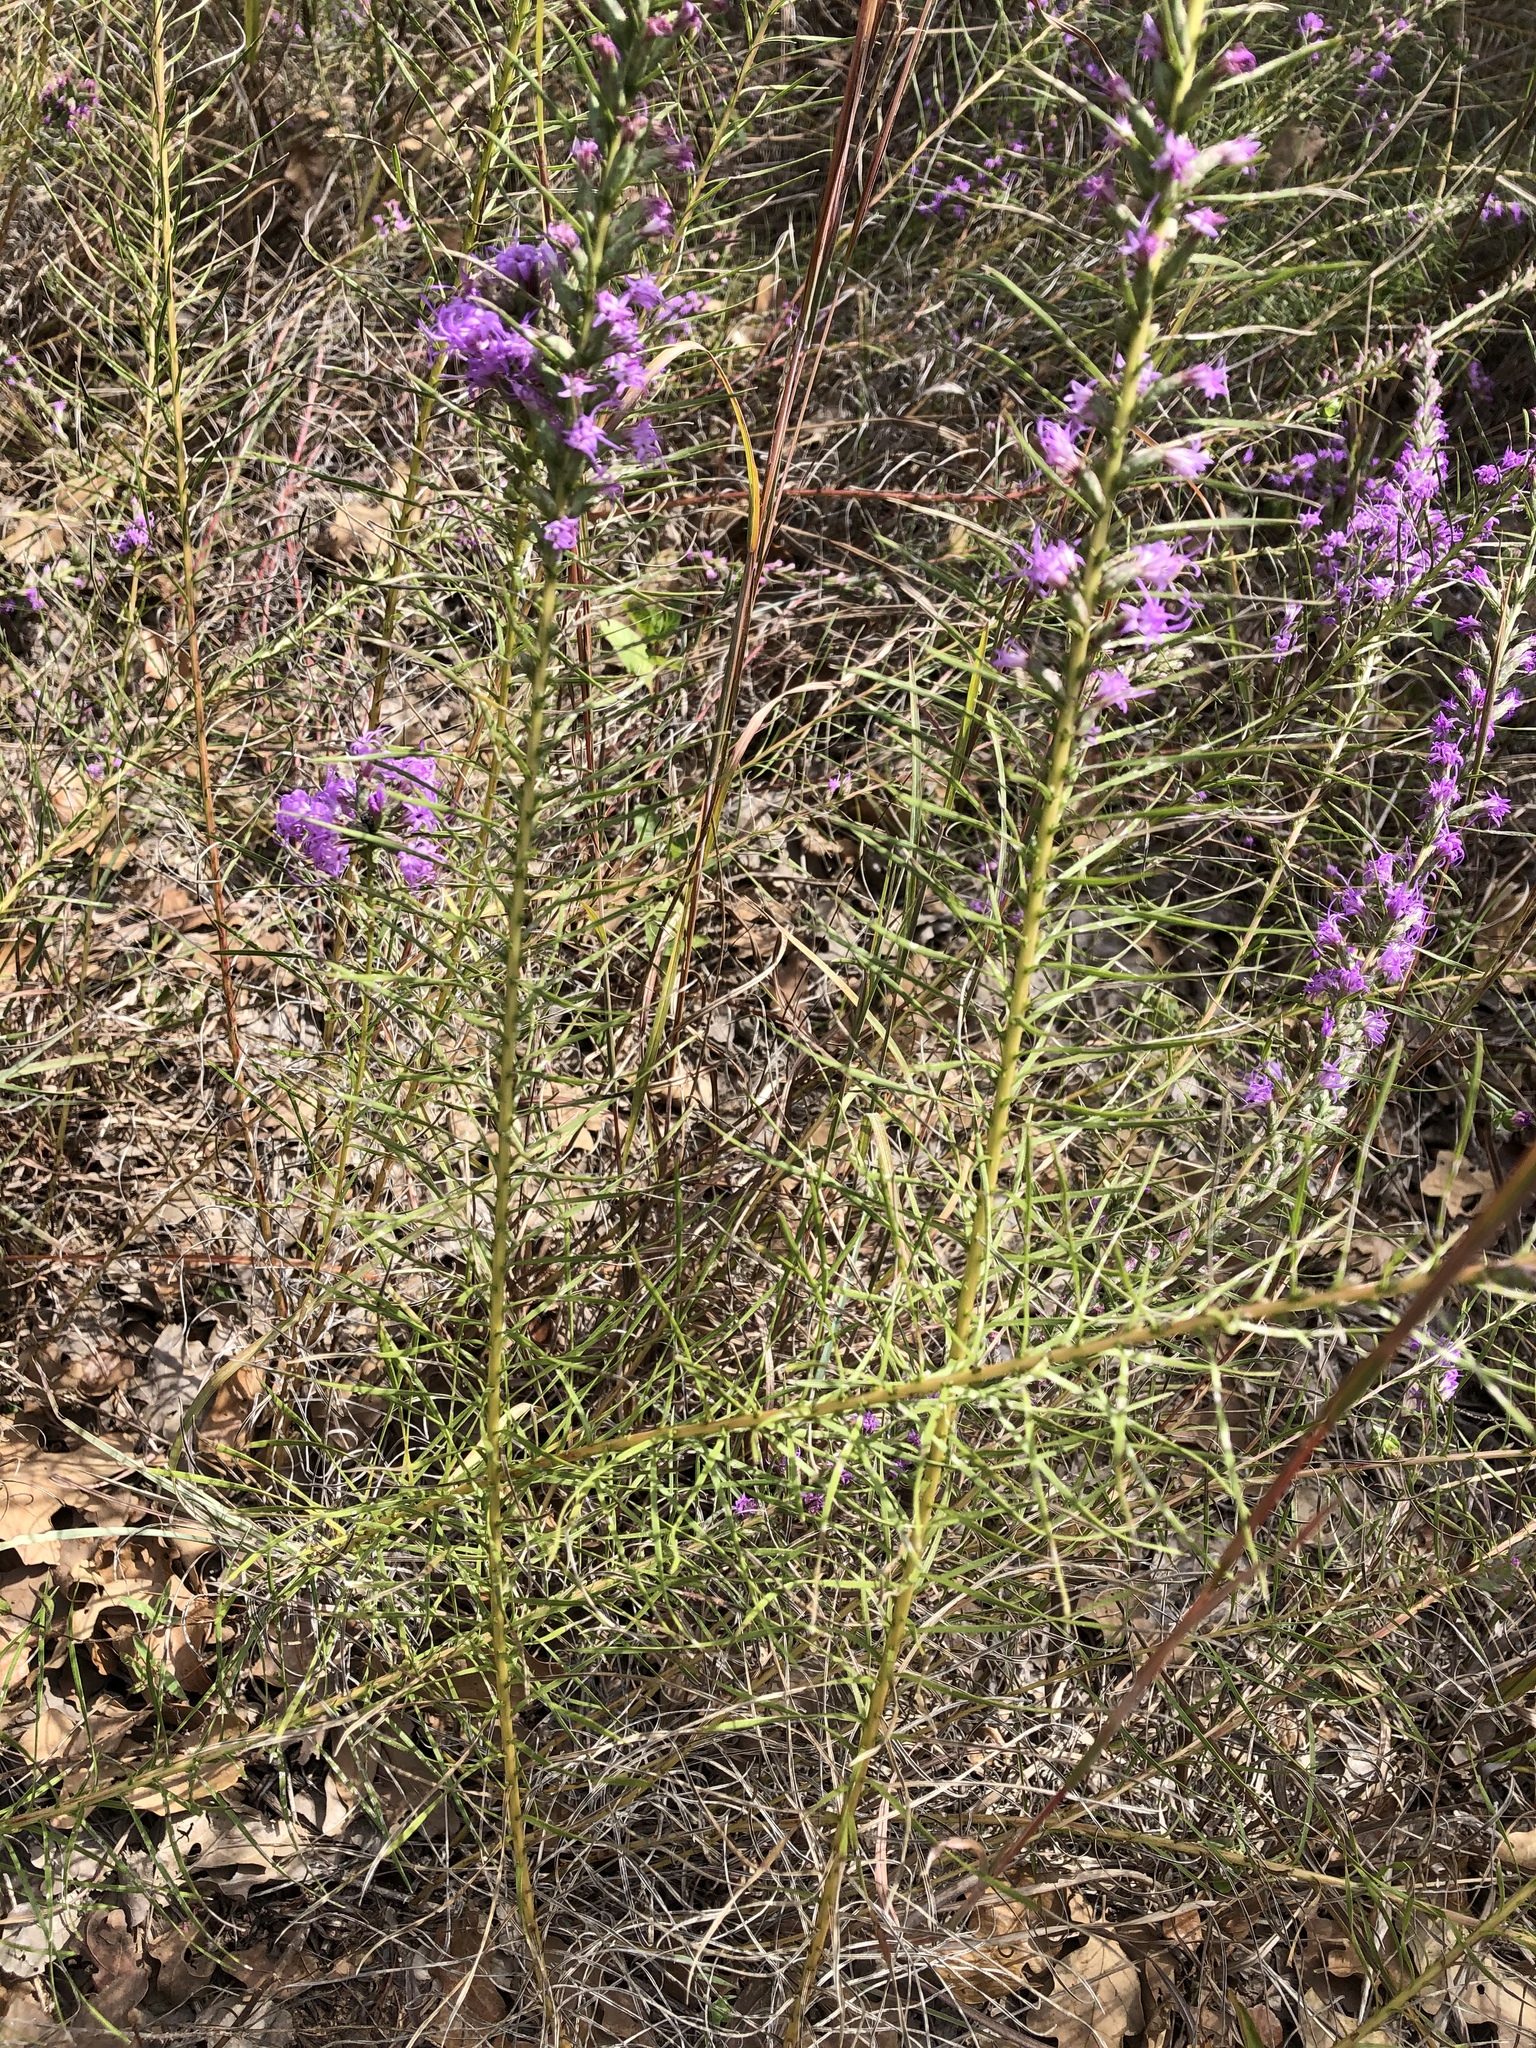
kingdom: Plantae
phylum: Tracheophyta
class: Magnoliopsida
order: Asterales
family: Asteraceae
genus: Liatris
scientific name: Liatris punctata
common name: Dotted gayfeather
